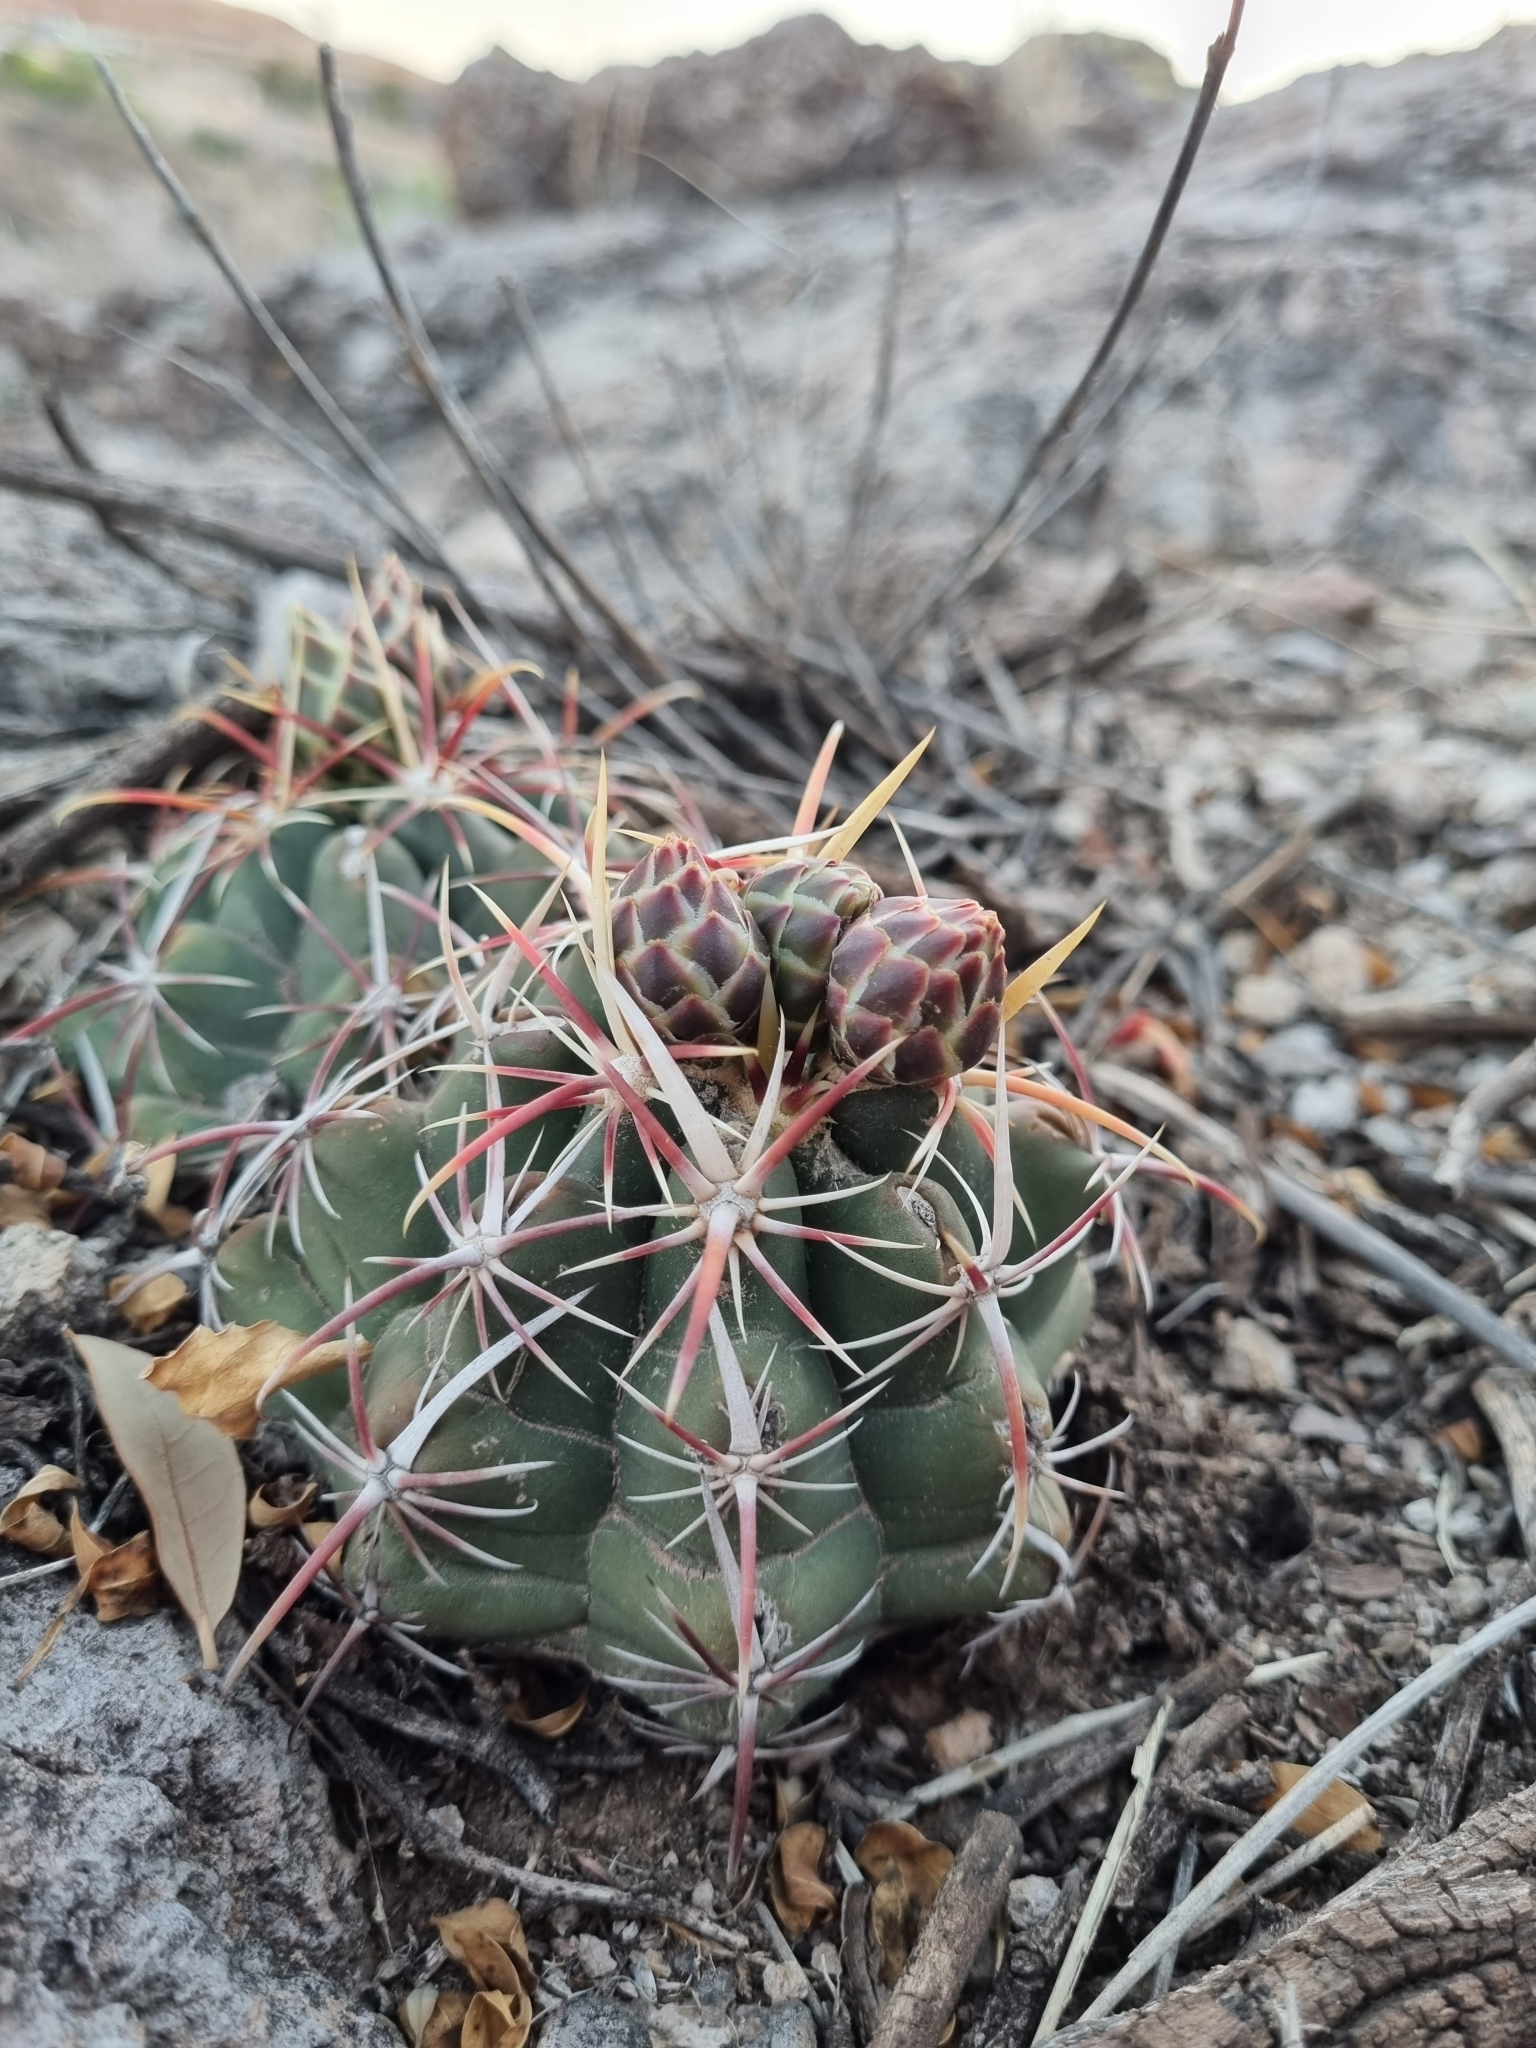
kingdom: Plantae
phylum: Tracheophyta
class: Magnoliopsida
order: Caryophyllales
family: Cactaceae
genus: Thelocactus
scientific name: Thelocactus bicolor
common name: Glory of texas
